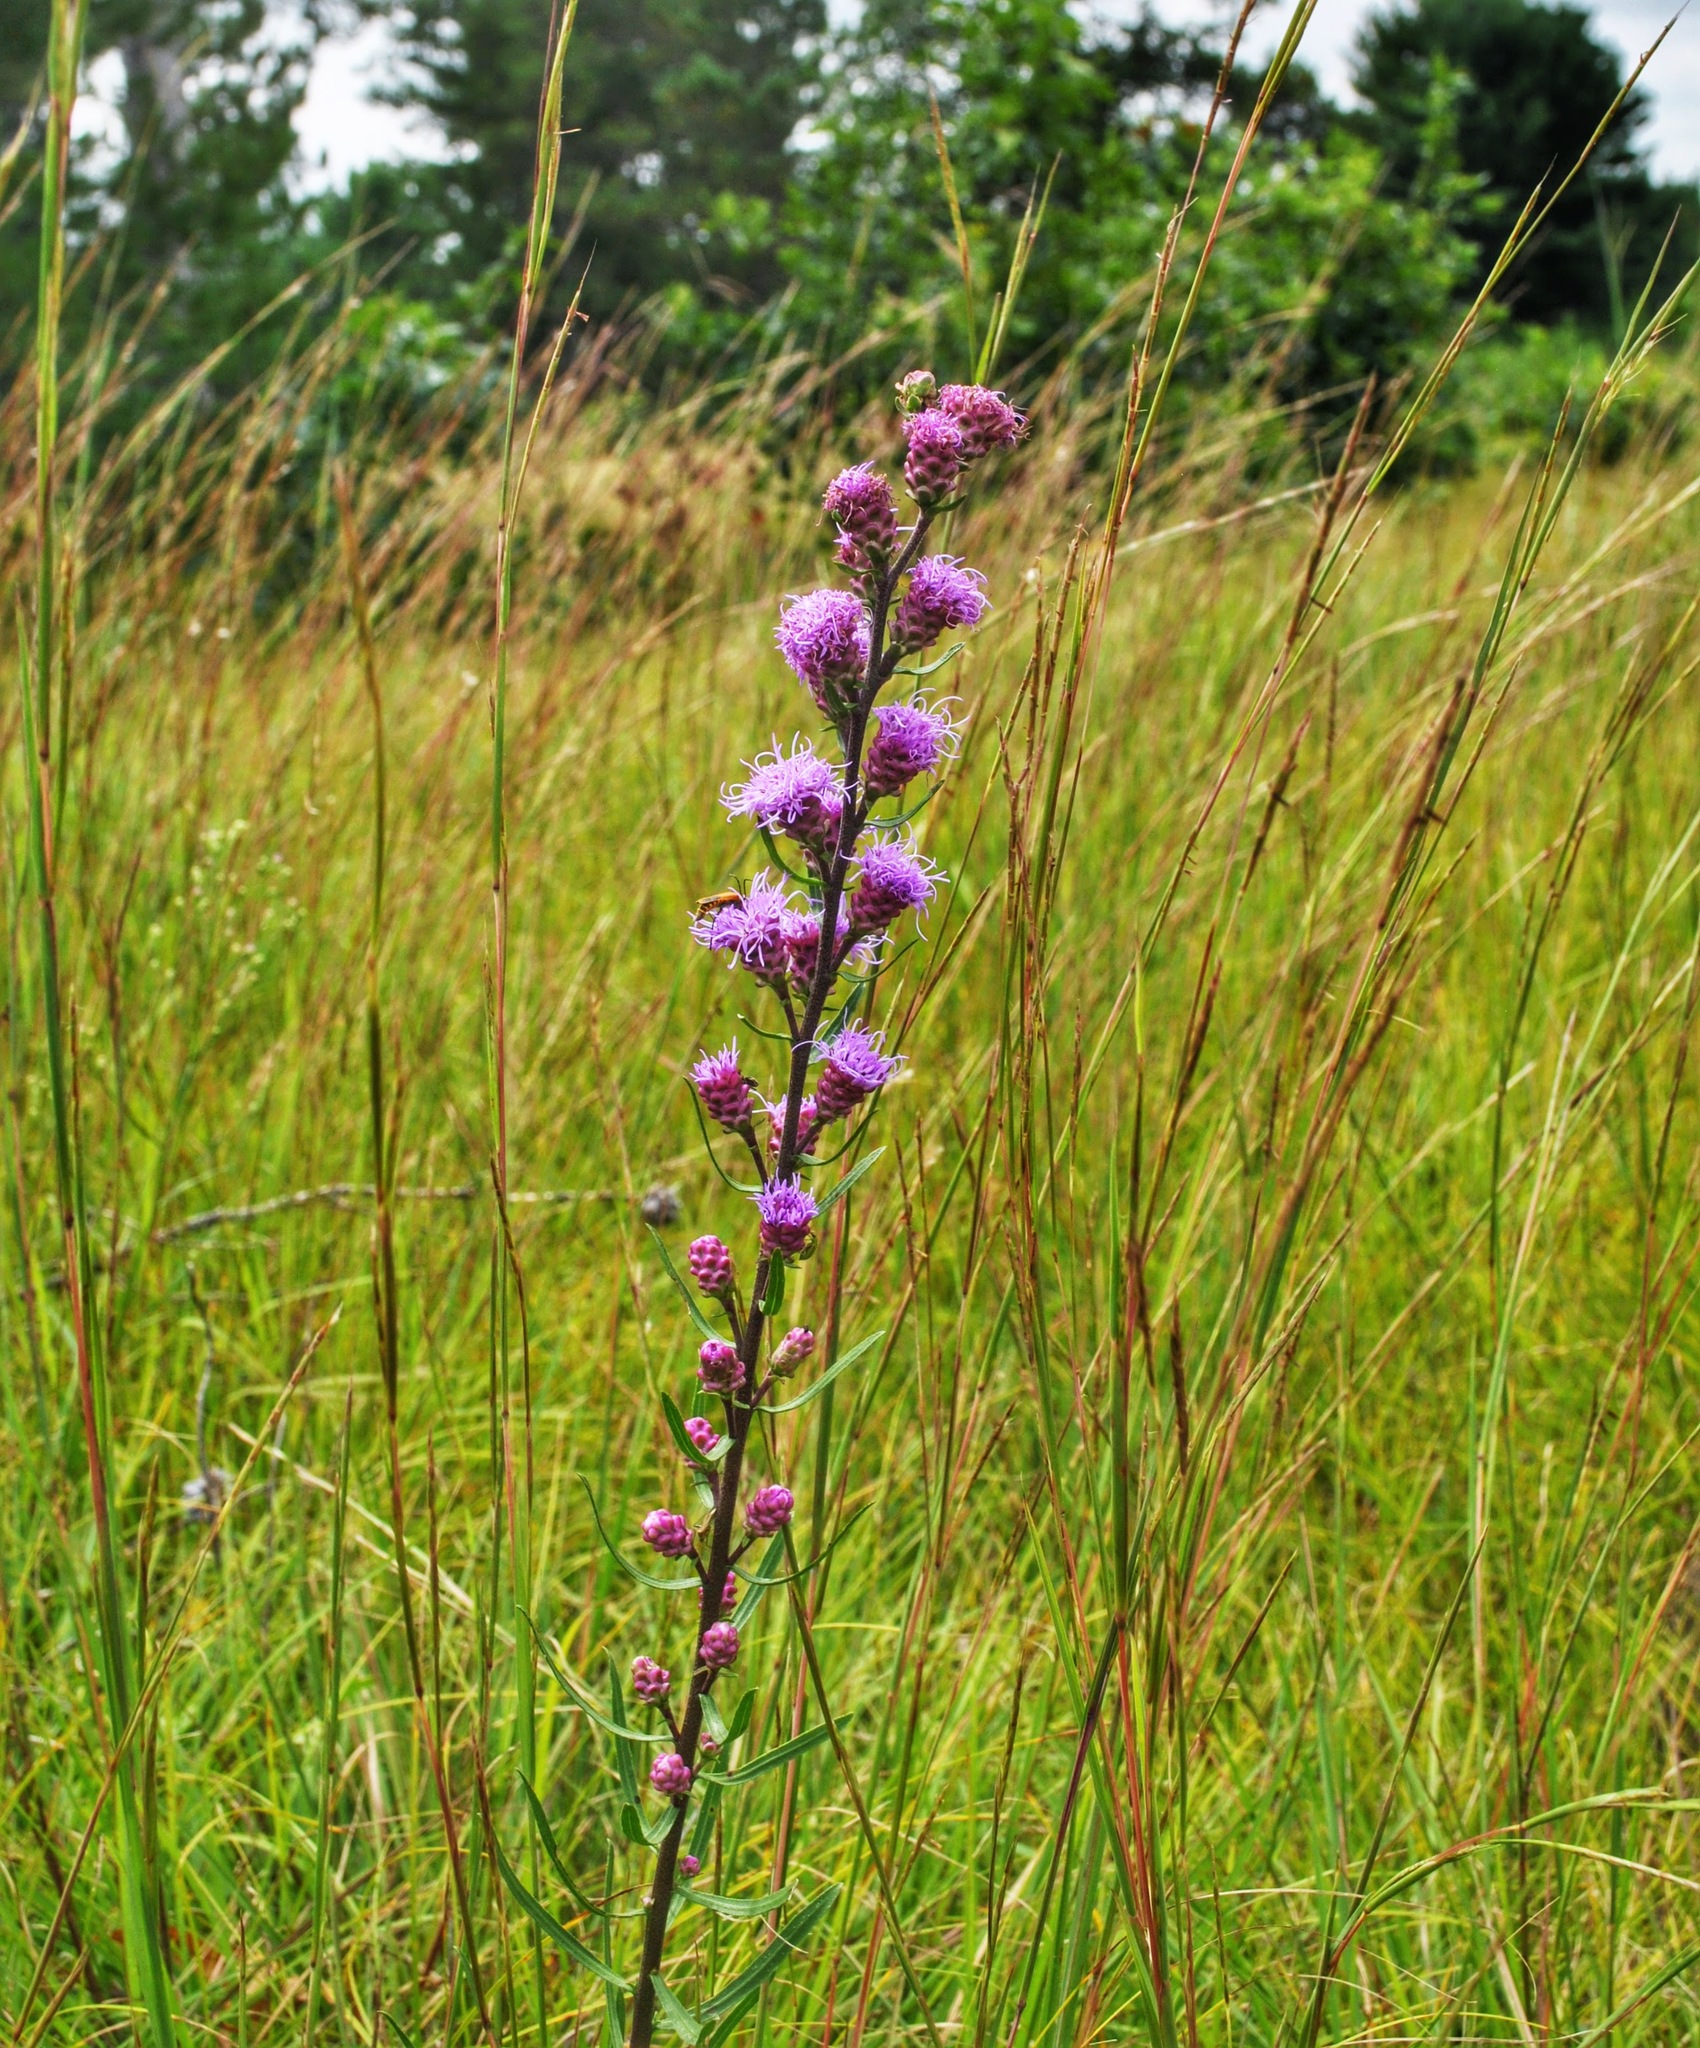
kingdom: Plantae
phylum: Tracheophyta
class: Magnoliopsida
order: Asterales
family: Asteraceae
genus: Liatris
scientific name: Liatris aspera
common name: Lacerate blazing-star
